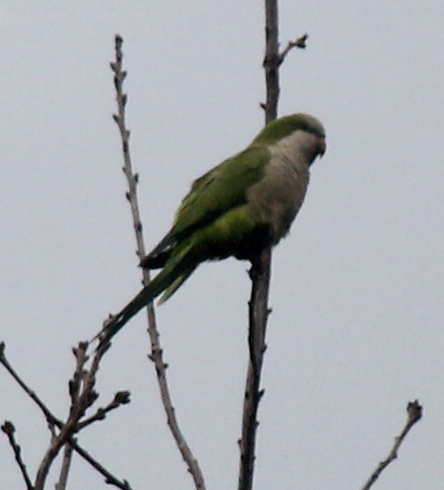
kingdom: Animalia
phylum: Chordata
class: Aves
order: Psittaciformes
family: Psittacidae
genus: Myiopsitta
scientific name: Myiopsitta monachus
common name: Monk parakeet
